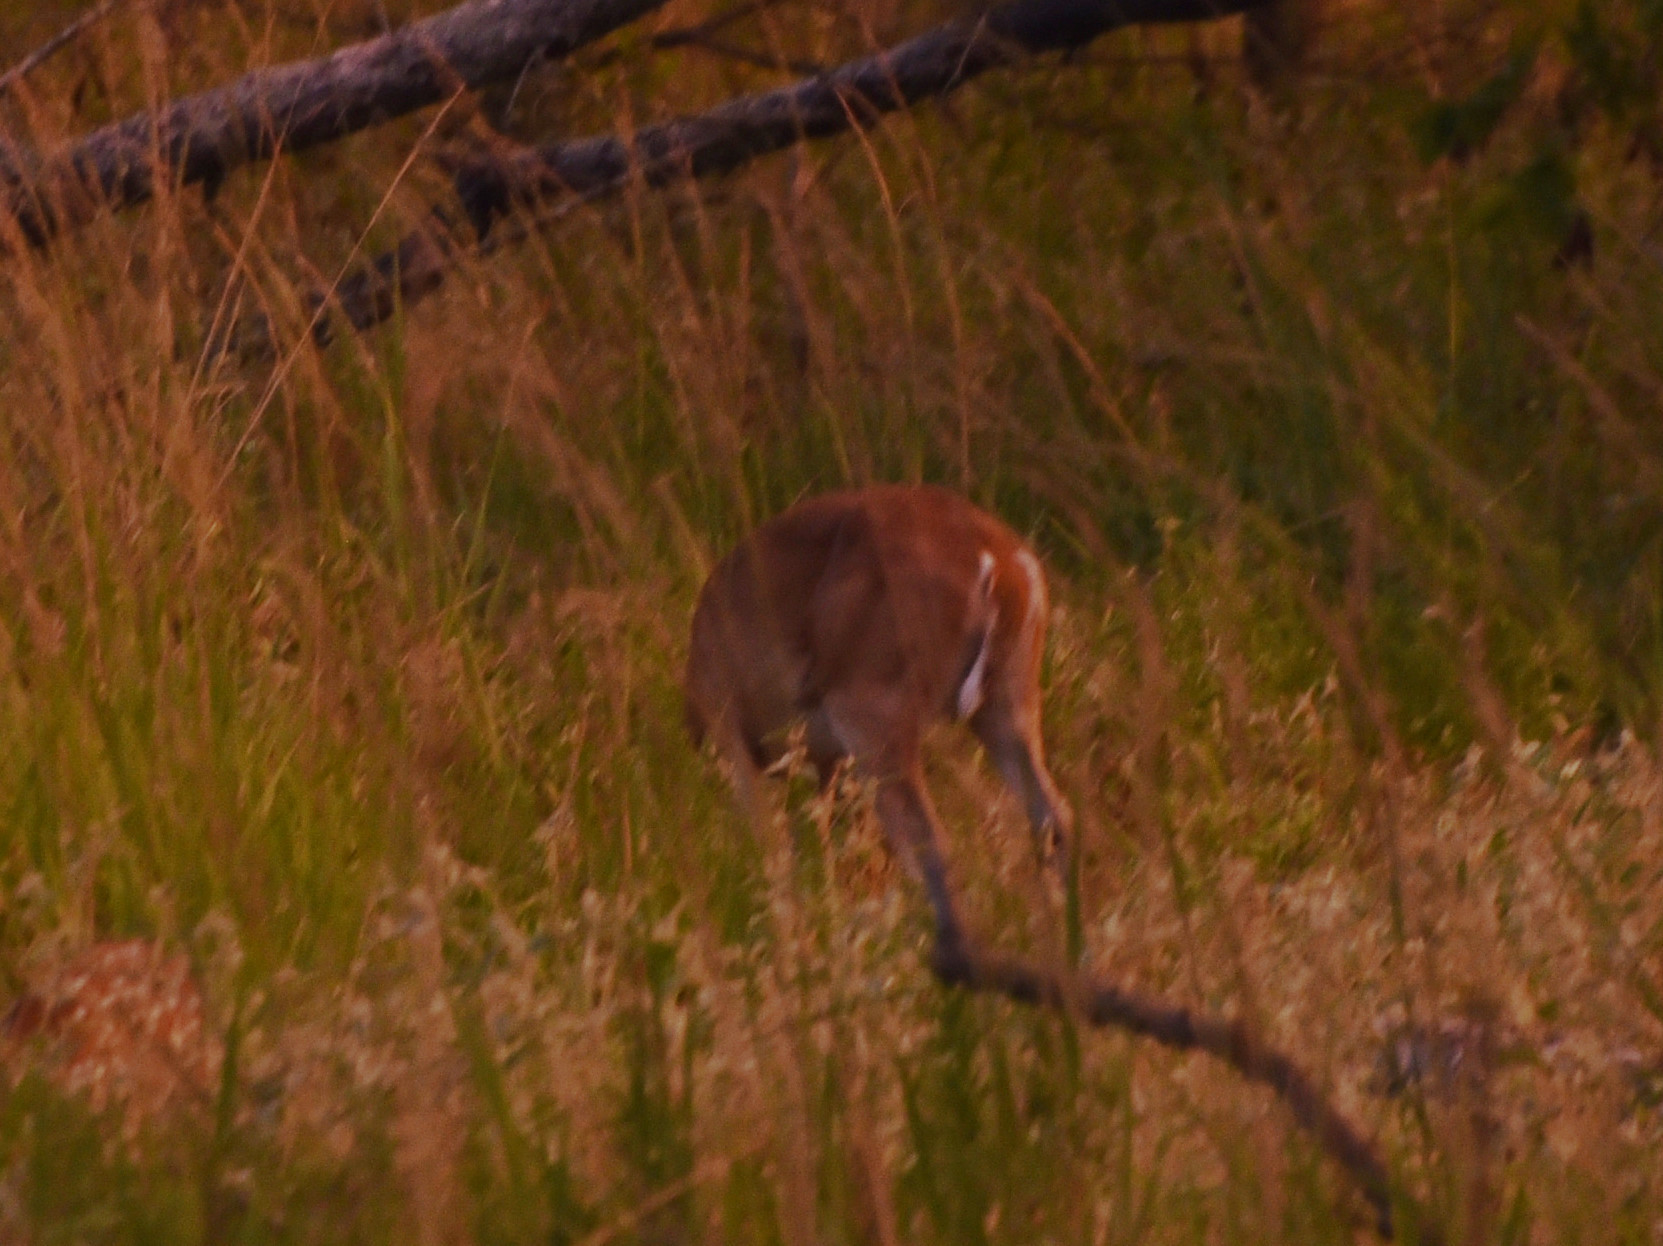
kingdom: Animalia
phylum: Chordata
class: Mammalia
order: Artiodactyla
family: Cervidae
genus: Odocoileus
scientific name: Odocoileus virginianus
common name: White-tailed deer
